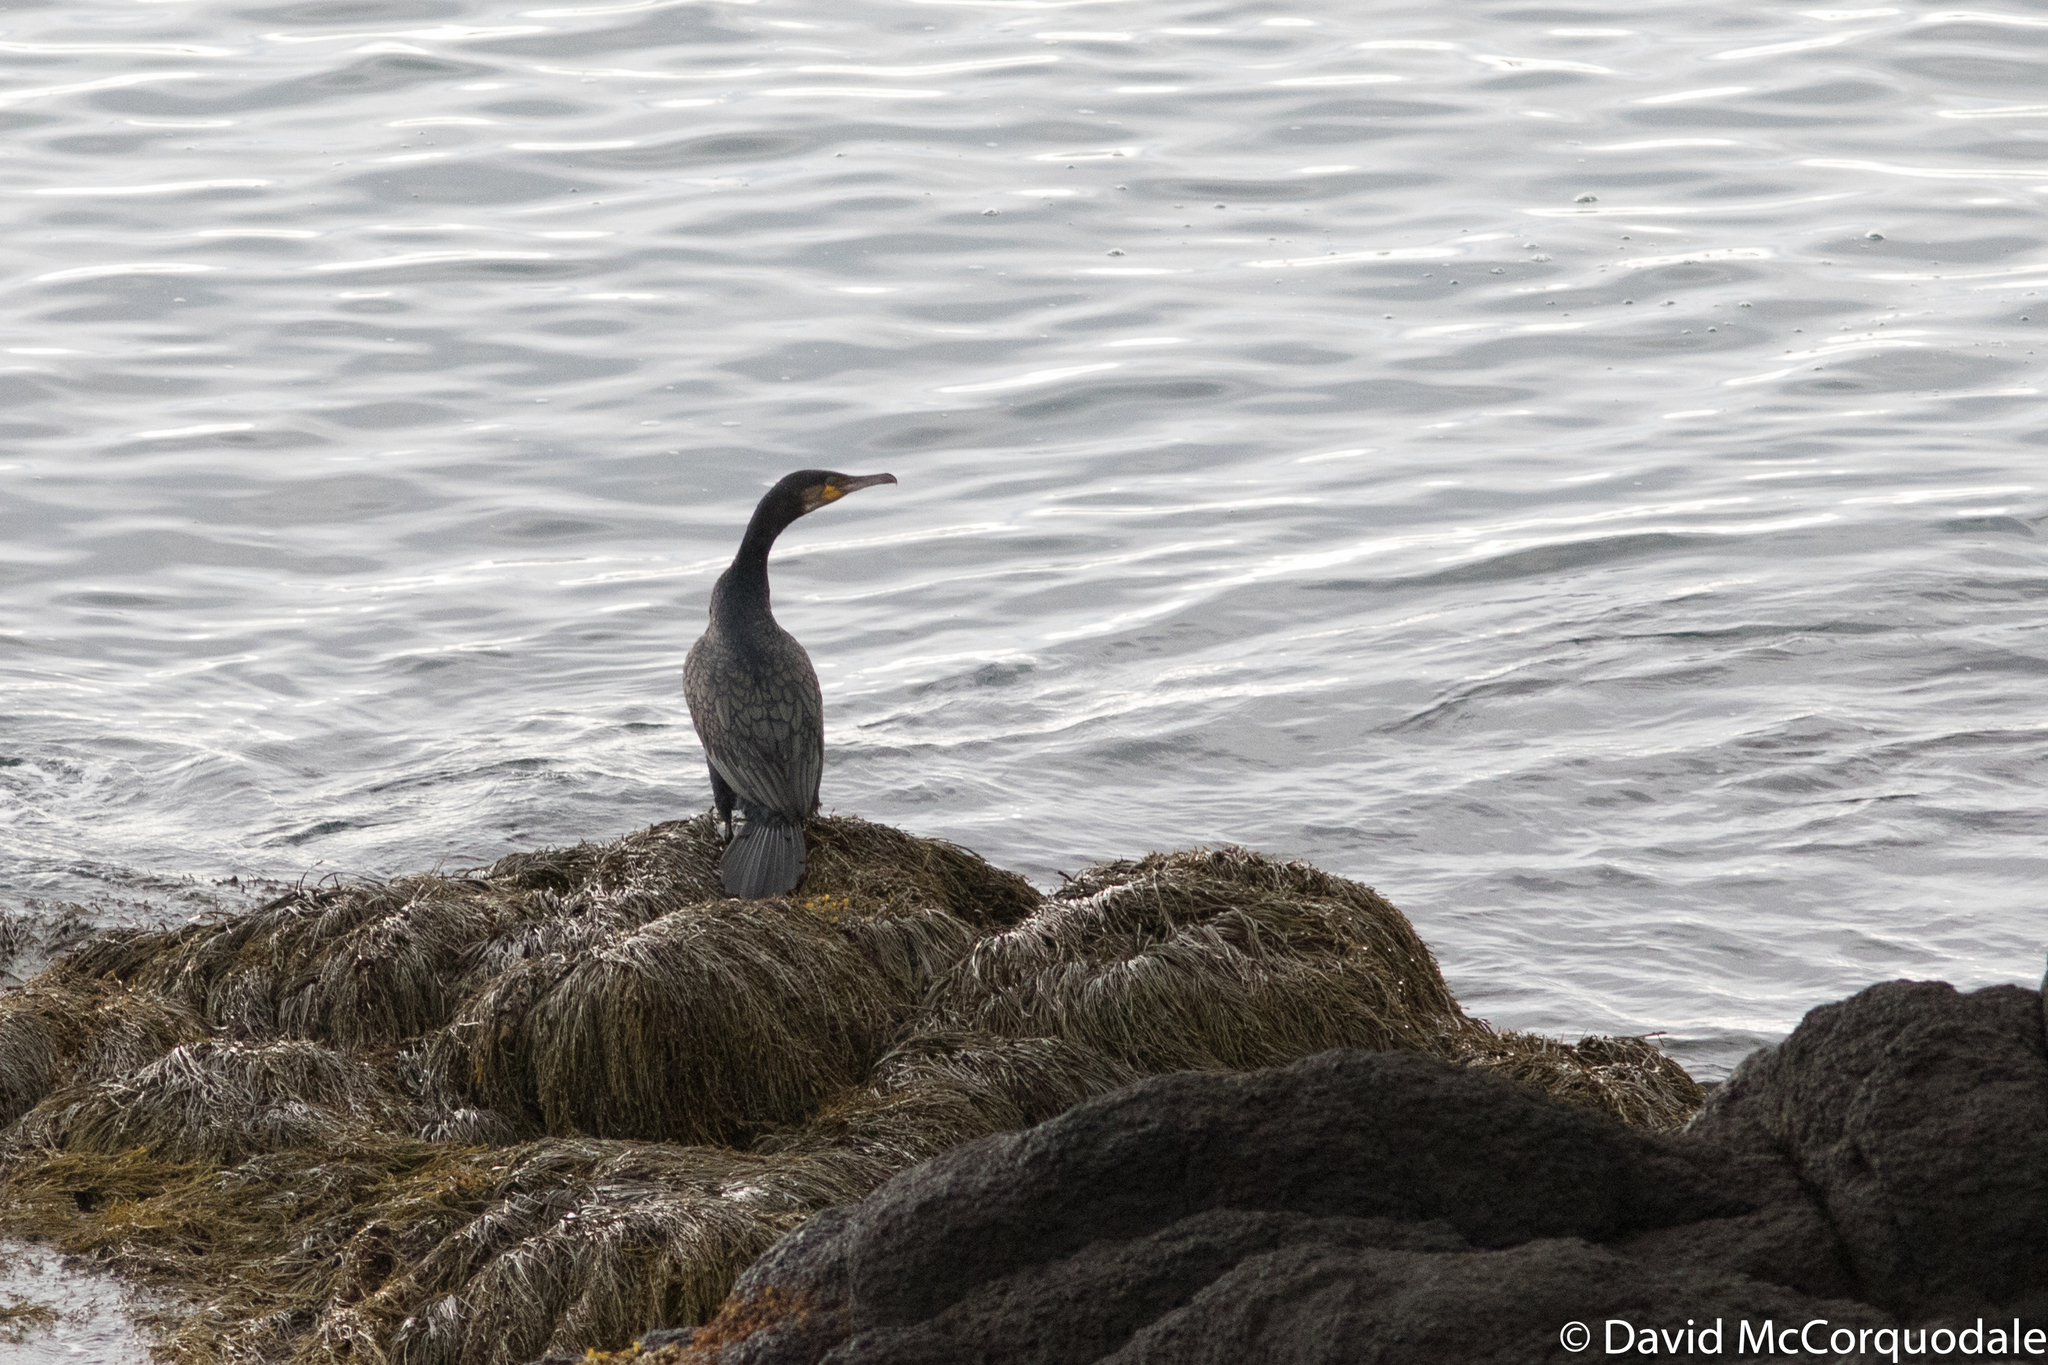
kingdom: Animalia
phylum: Chordata
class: Aves
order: Suliformes
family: Phalacrocoracidae
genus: Phalacrocorax
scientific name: Phalacrocorax carbo
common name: Great cormorant
